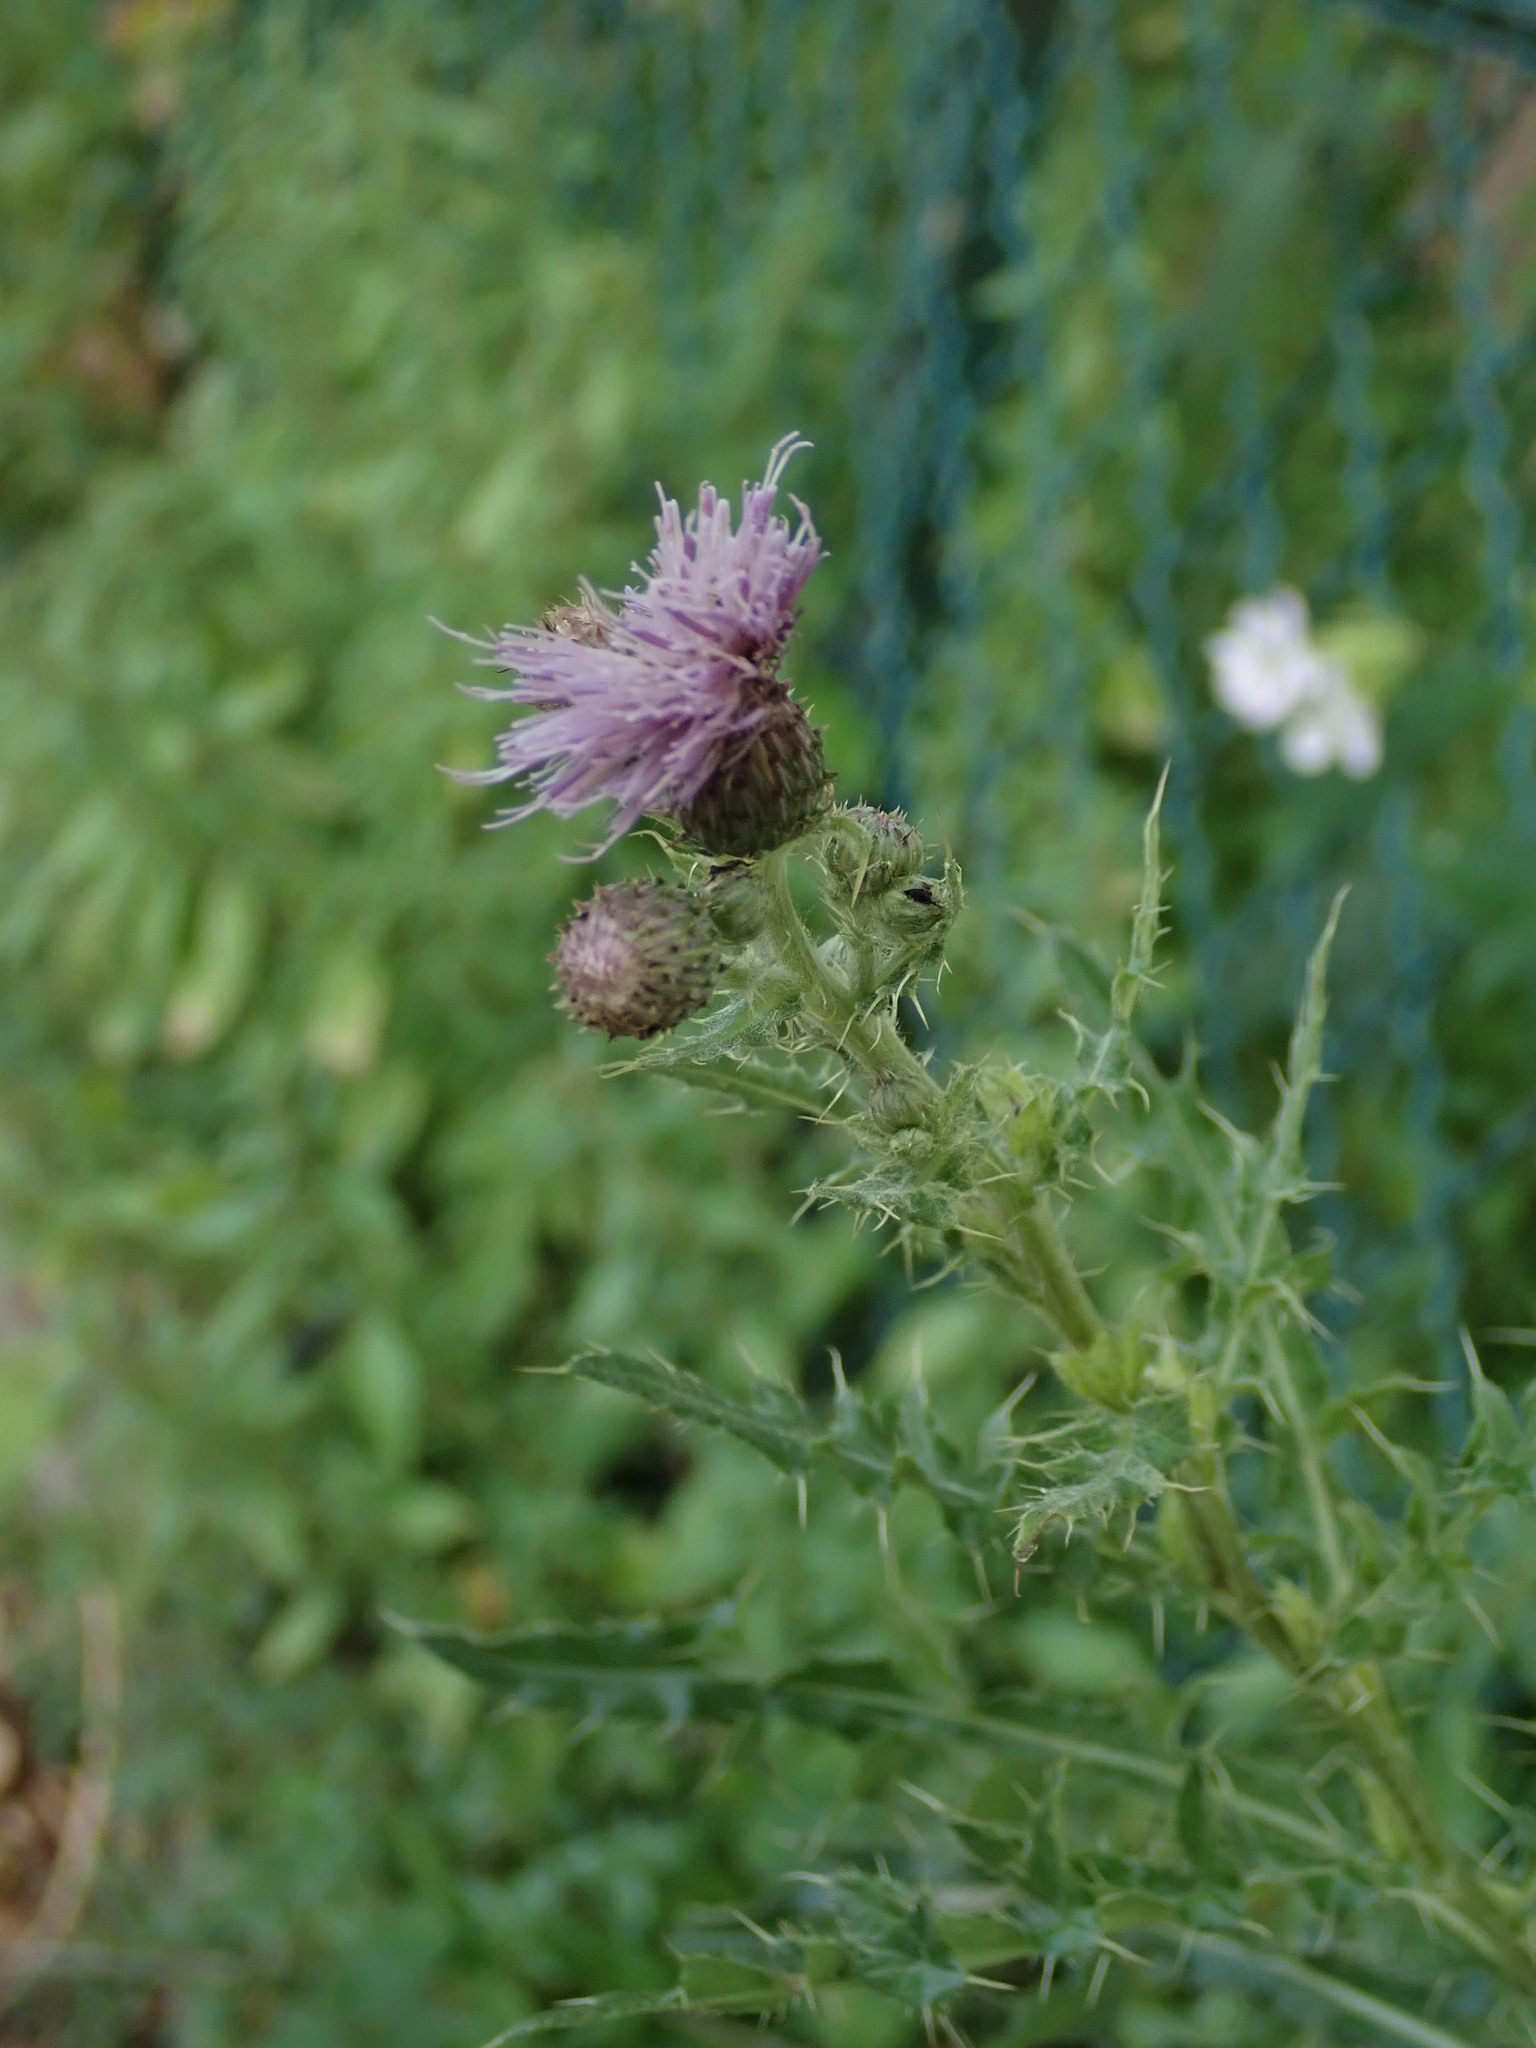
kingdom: Plantae
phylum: Tracheophyta
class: Magnoliopsida
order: Asterales
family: Asteraceae
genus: Cirsium
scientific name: Cirsium arvense
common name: Creeping thistle
